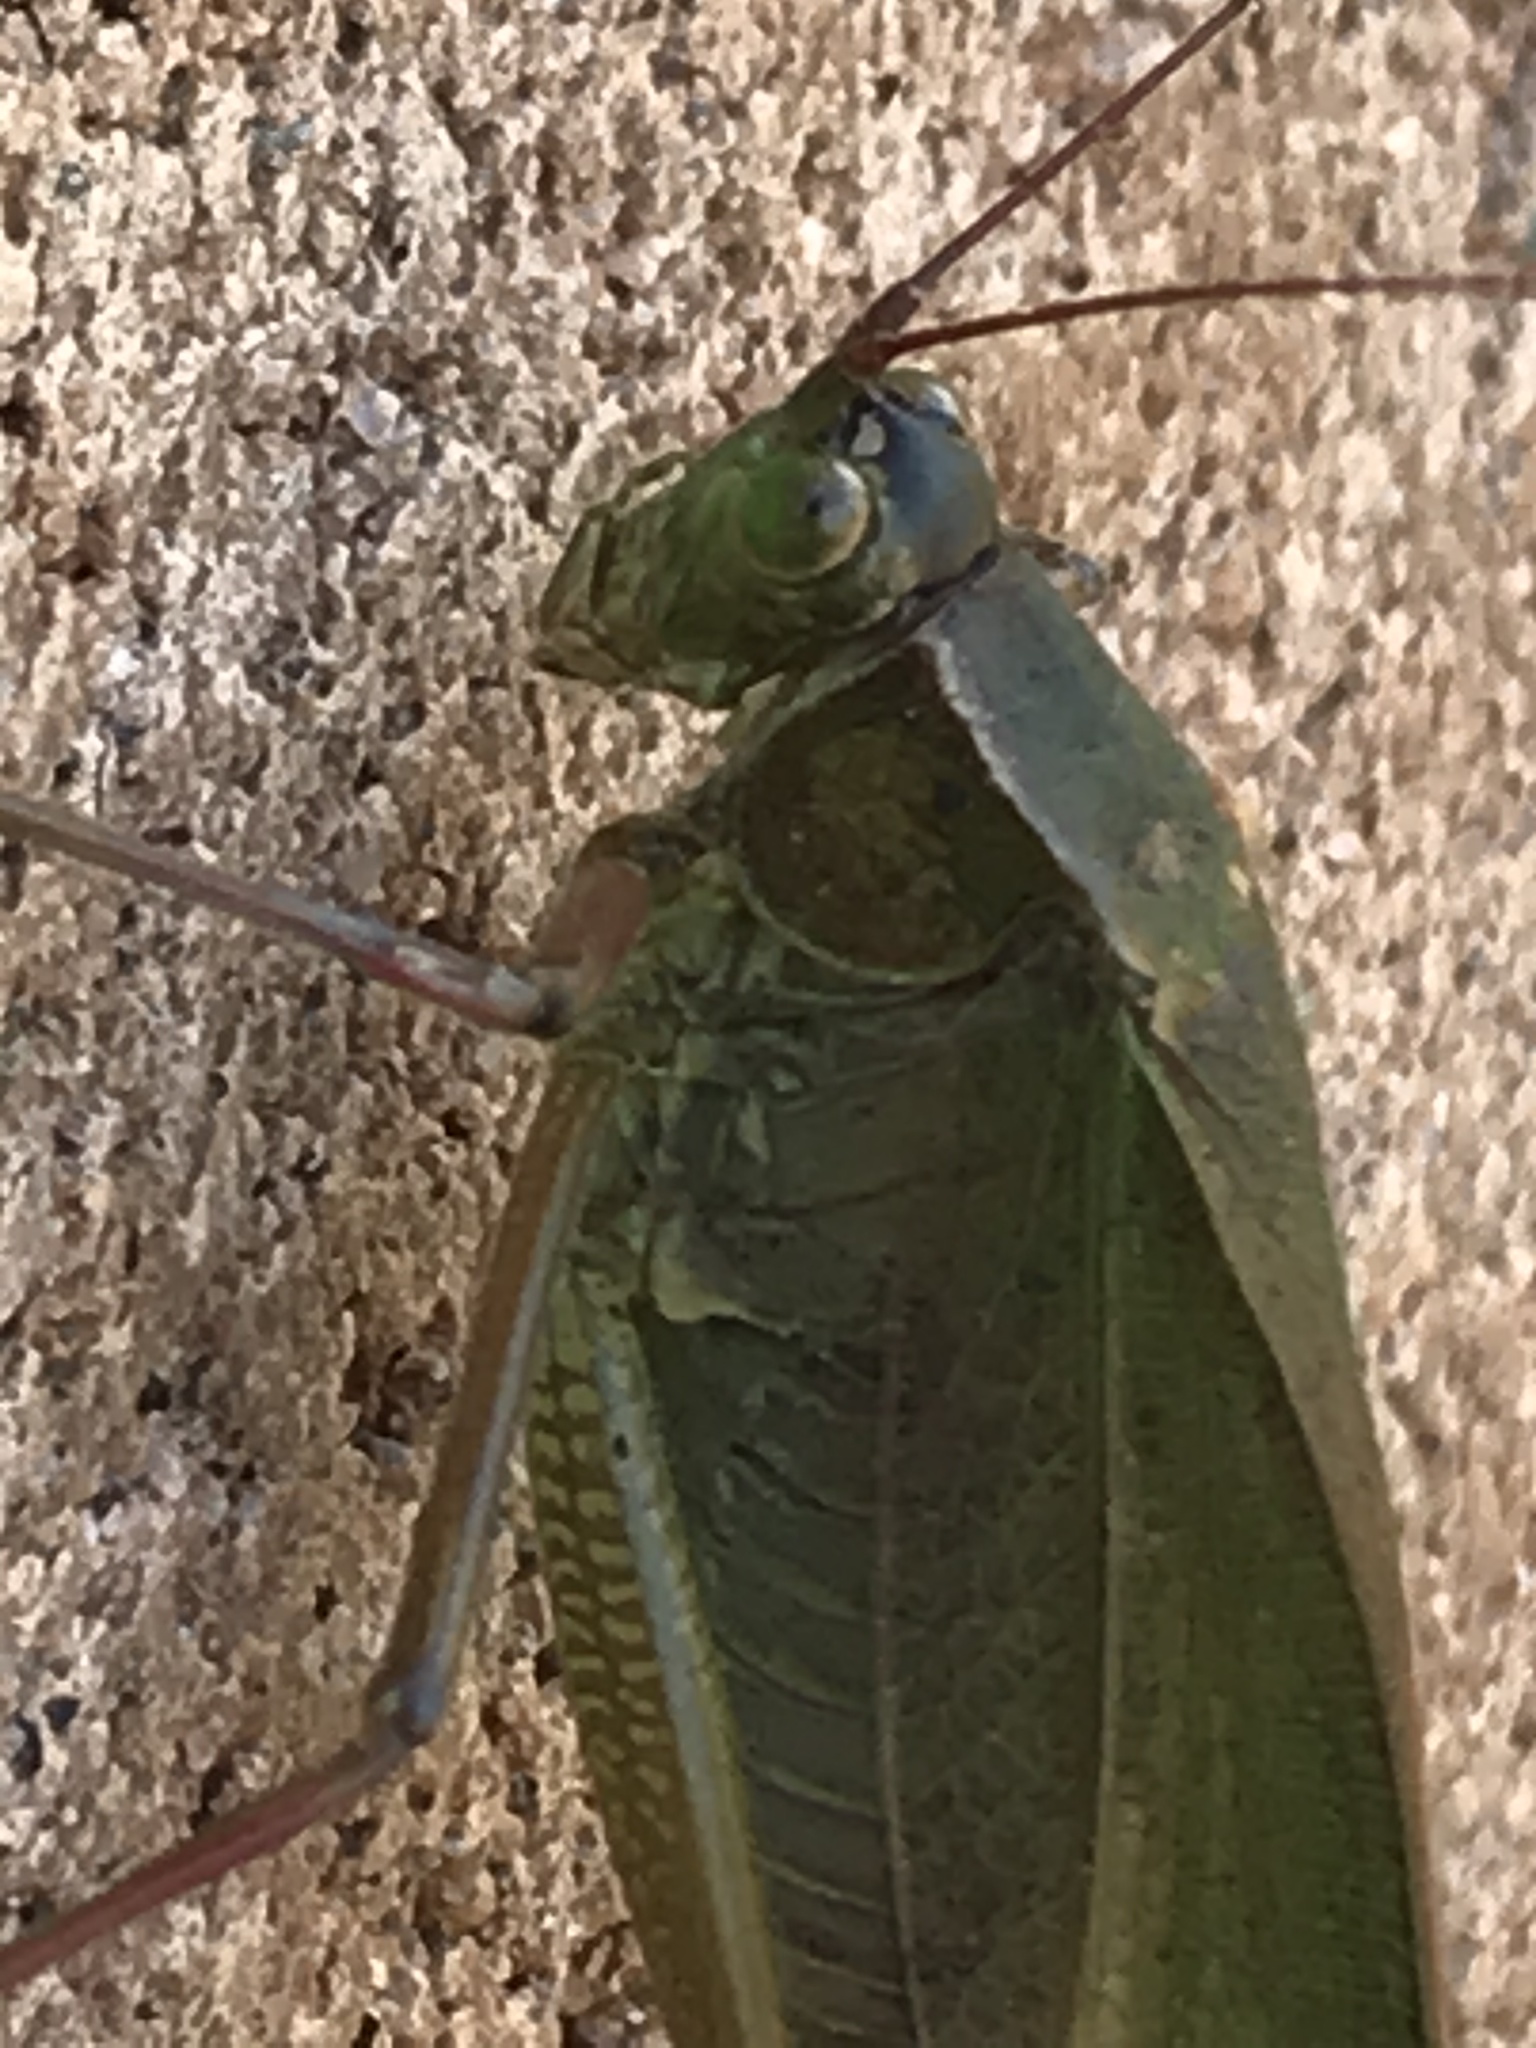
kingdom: Animalia
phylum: Arthropoda
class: Insecta
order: Orthoptera
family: Tettigoniidae
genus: Scudderia
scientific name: Scudderia
